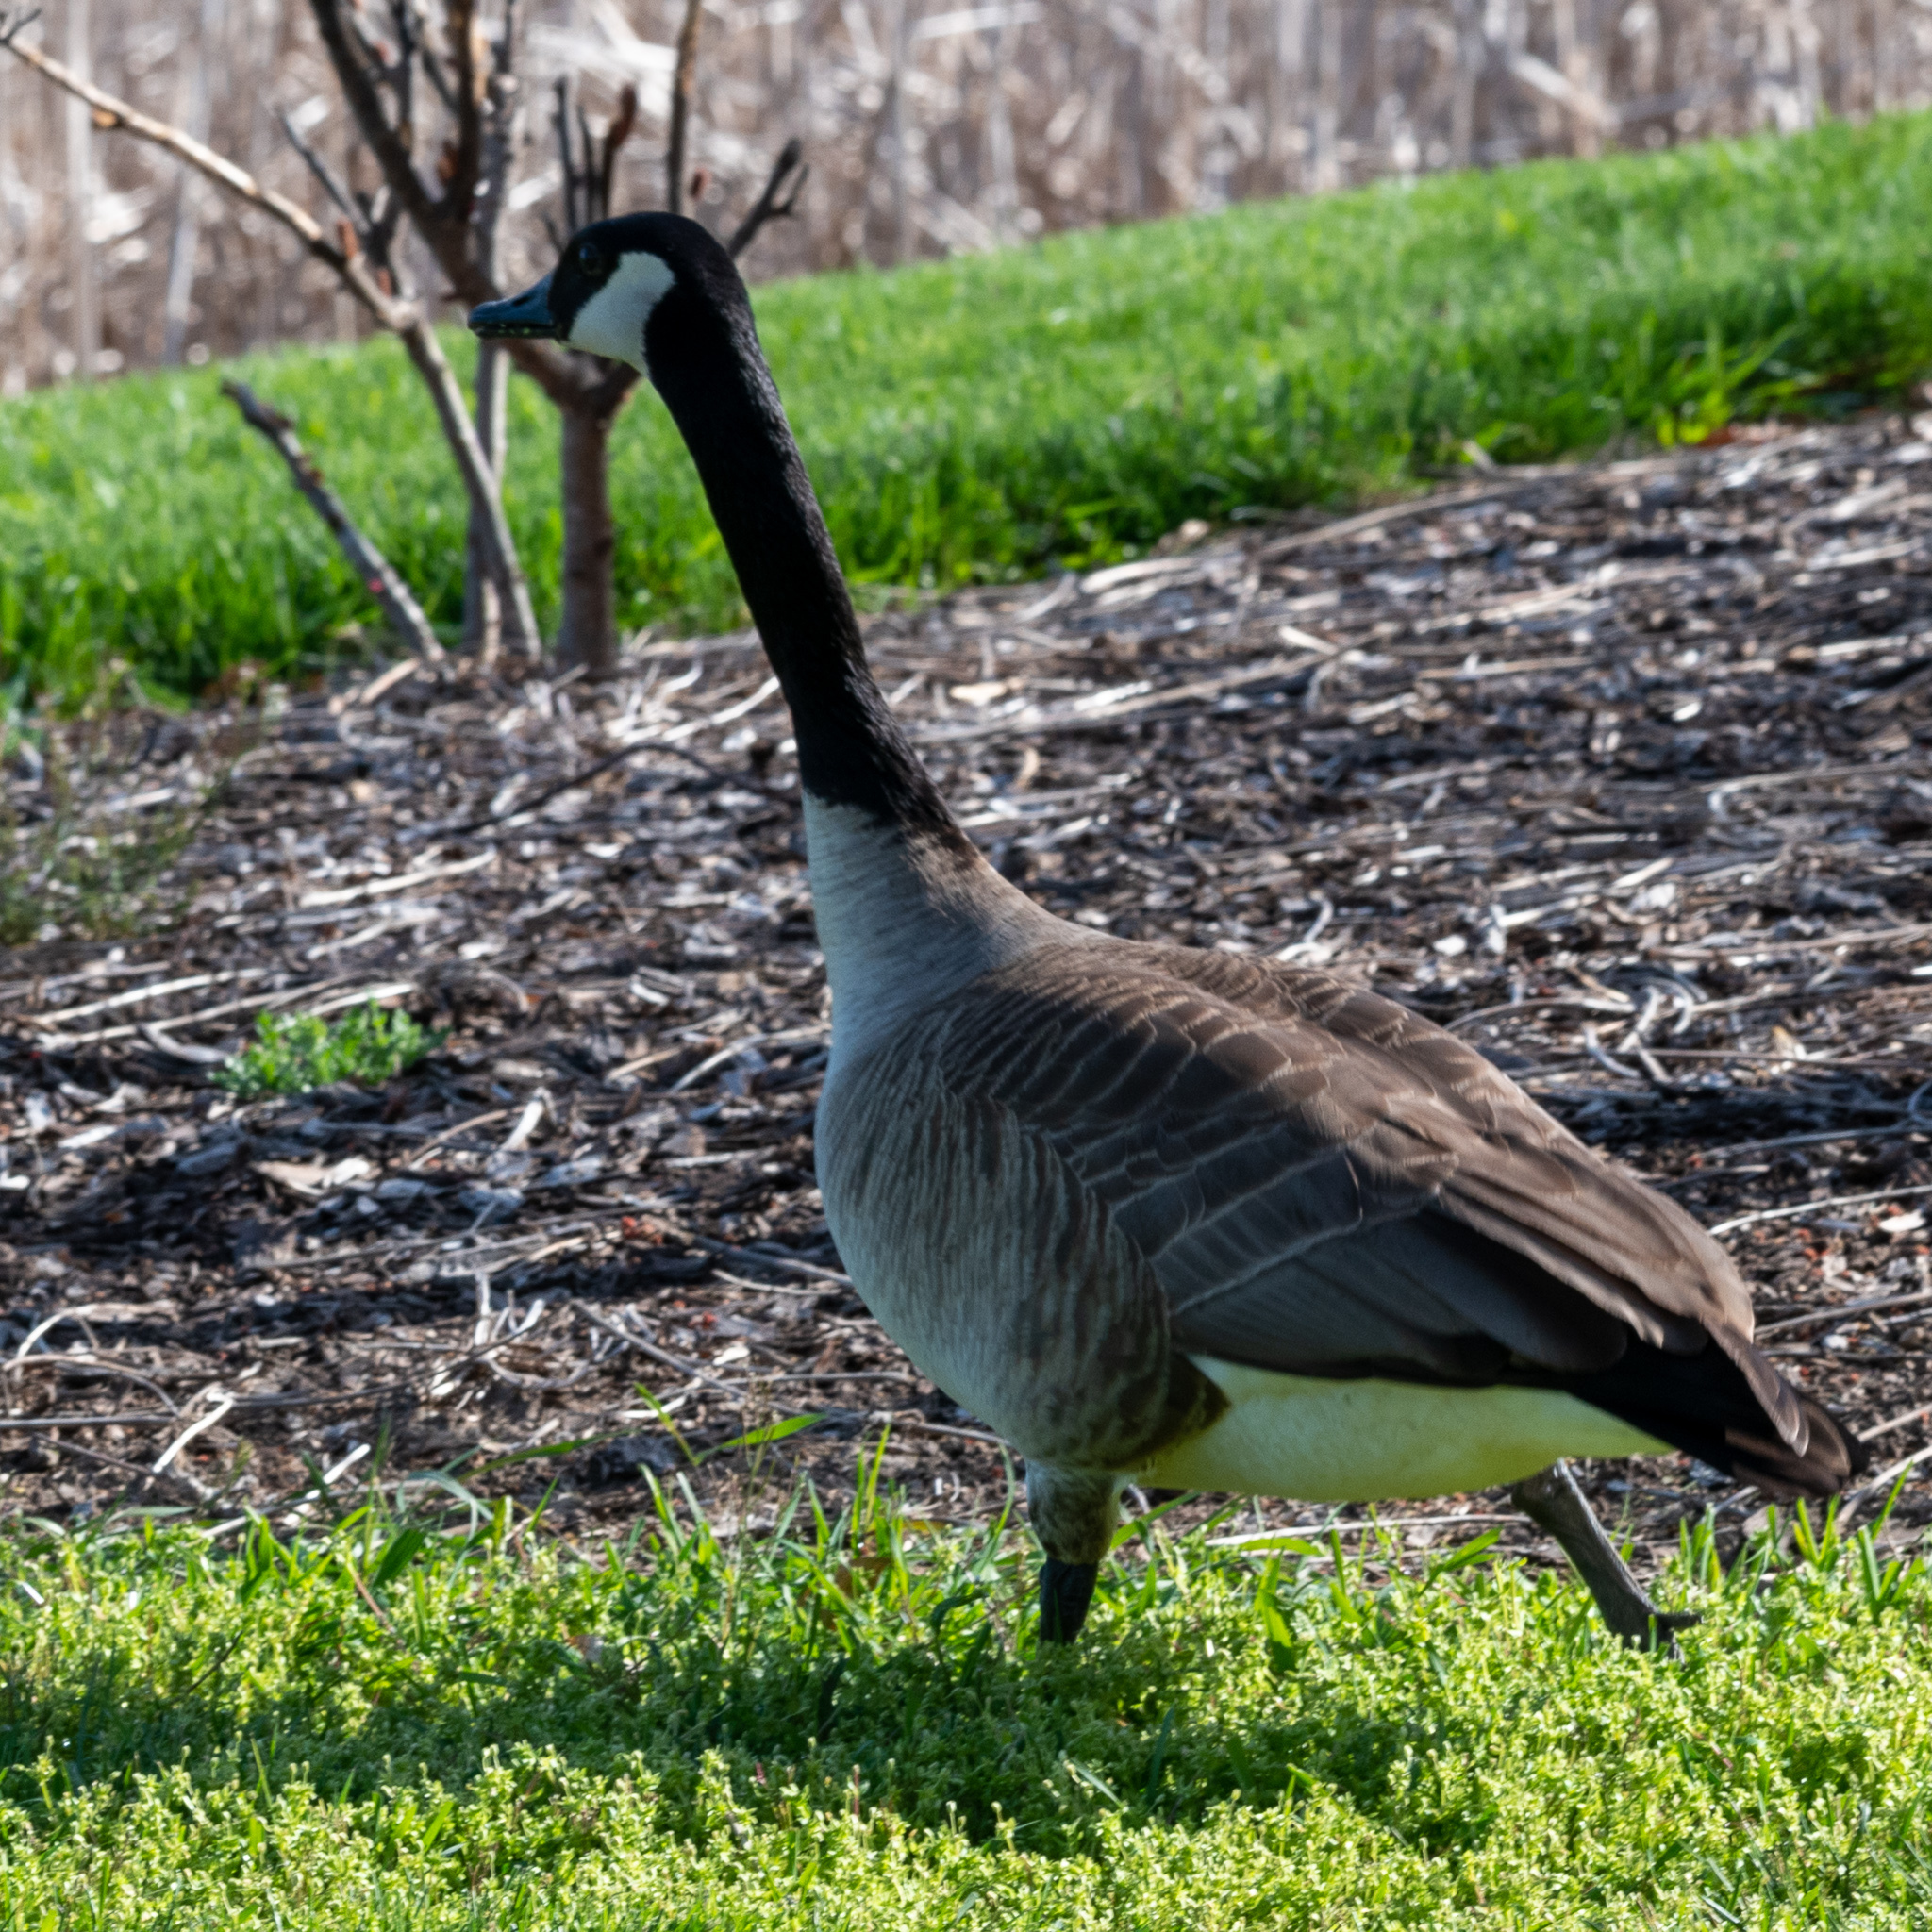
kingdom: Animalia
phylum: Chordata
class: Aves
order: Anseriformes
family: Anatidae
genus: Branta
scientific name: Branta canadensis
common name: Canada goose
